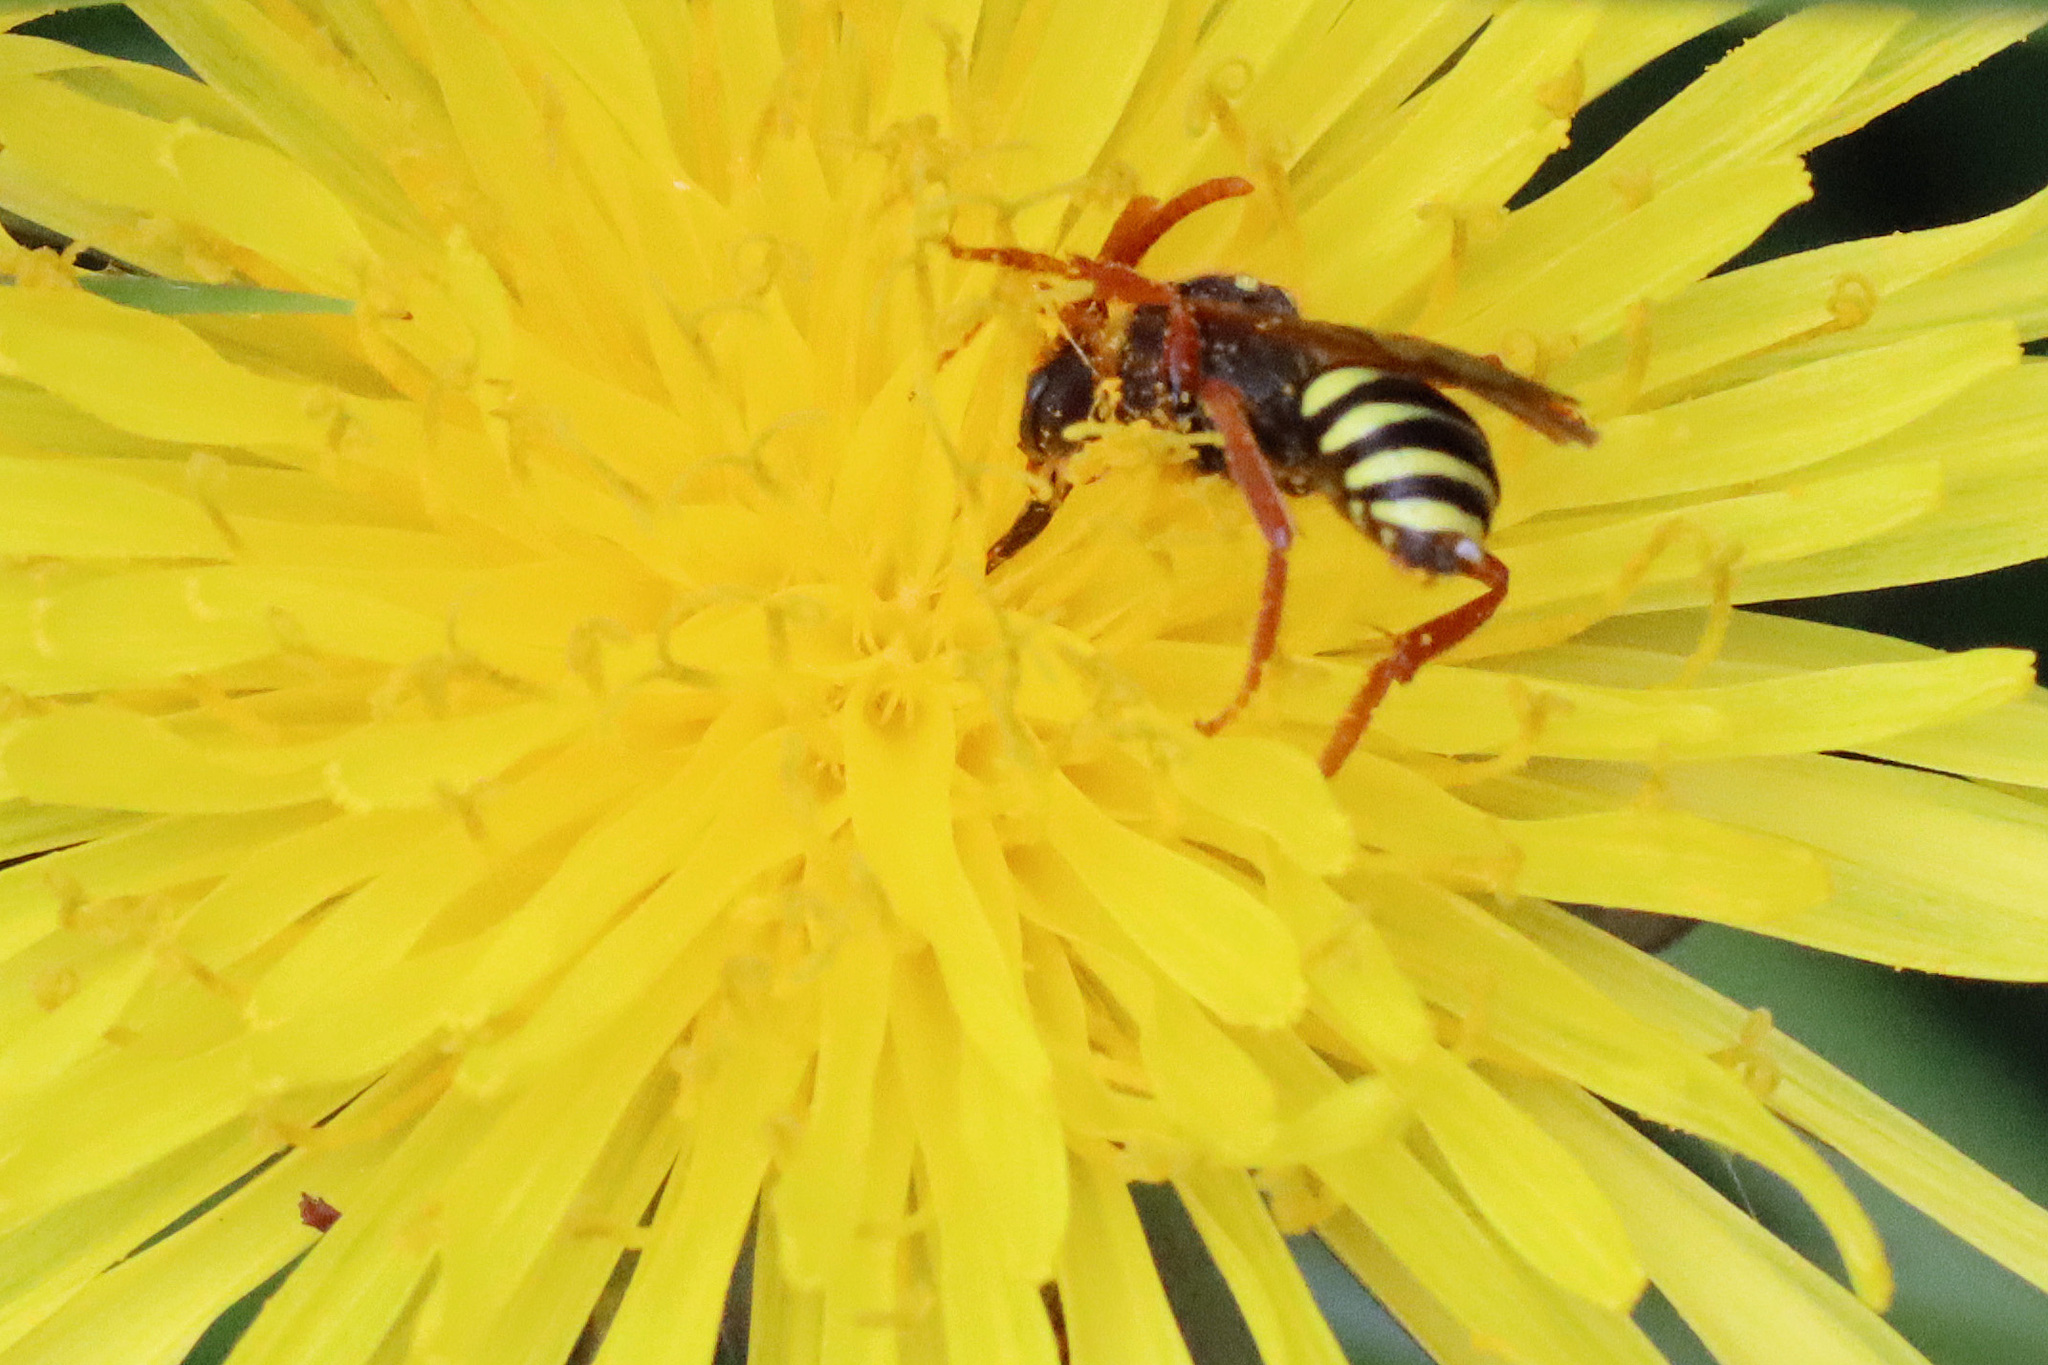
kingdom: Animalia
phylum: Arthropoda
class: Insecta
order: Hymenoptera
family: Apidae
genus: Nomada
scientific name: Nomada goodeniana
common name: Gooden's nomad bee
